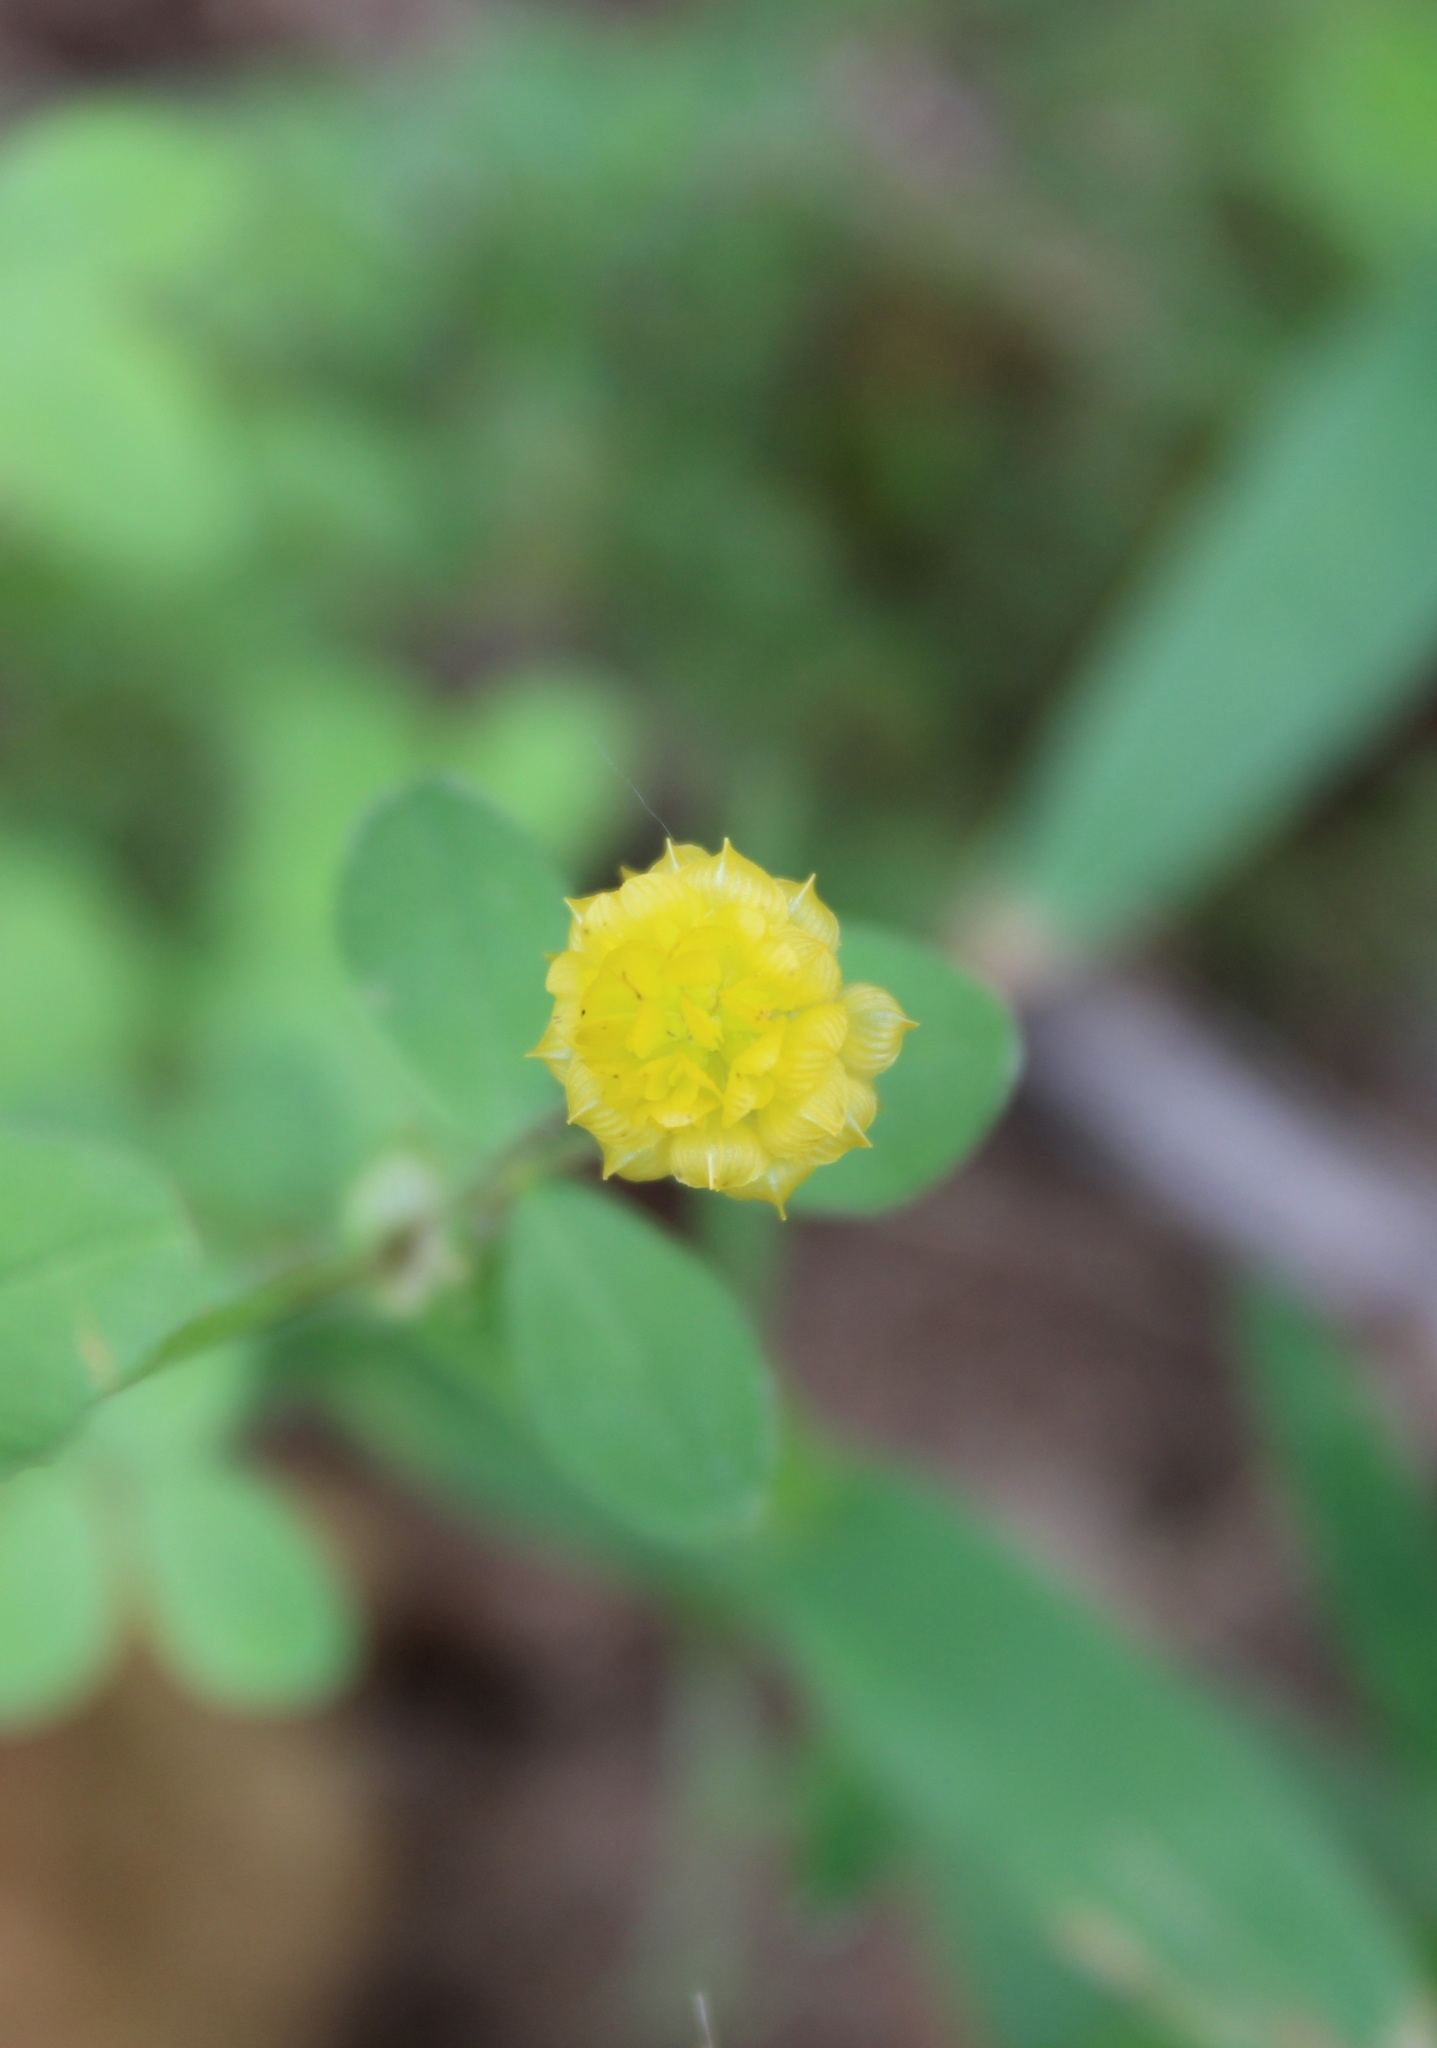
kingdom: Plantae
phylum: Tracheophyta
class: Magnoliopsida
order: Fabales
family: Fabaceae
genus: Trifolium
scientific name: Trifolium campestre
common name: Field clover
